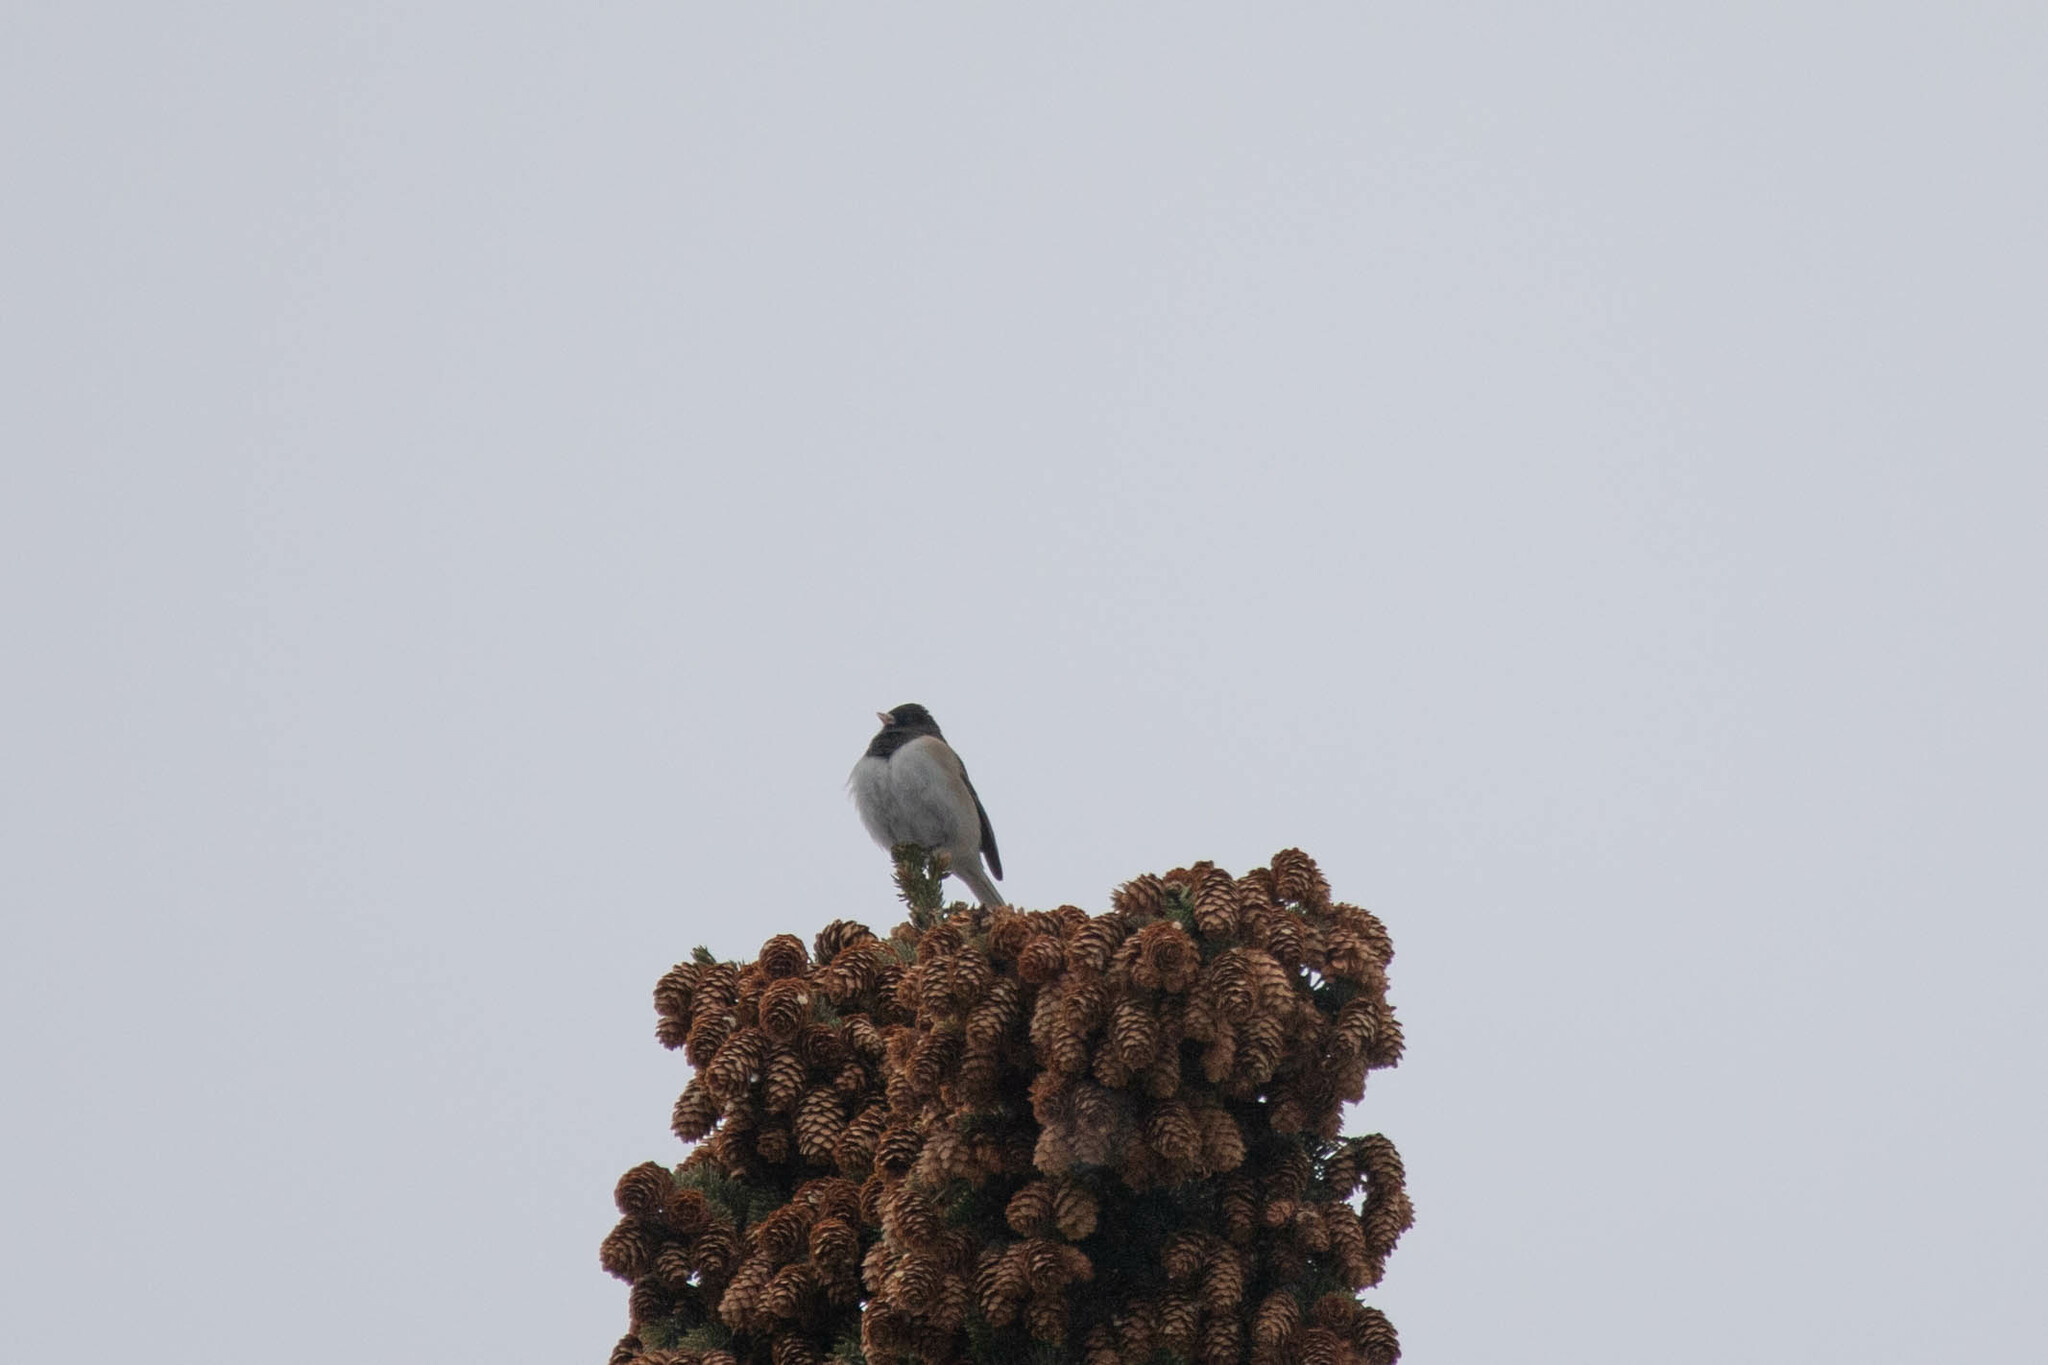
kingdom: Animalia
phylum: Chordata
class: Aves
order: Passeriformes
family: Passerellidae
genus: Junco
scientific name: Junco hyemalis
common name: Dark-eyed junco
